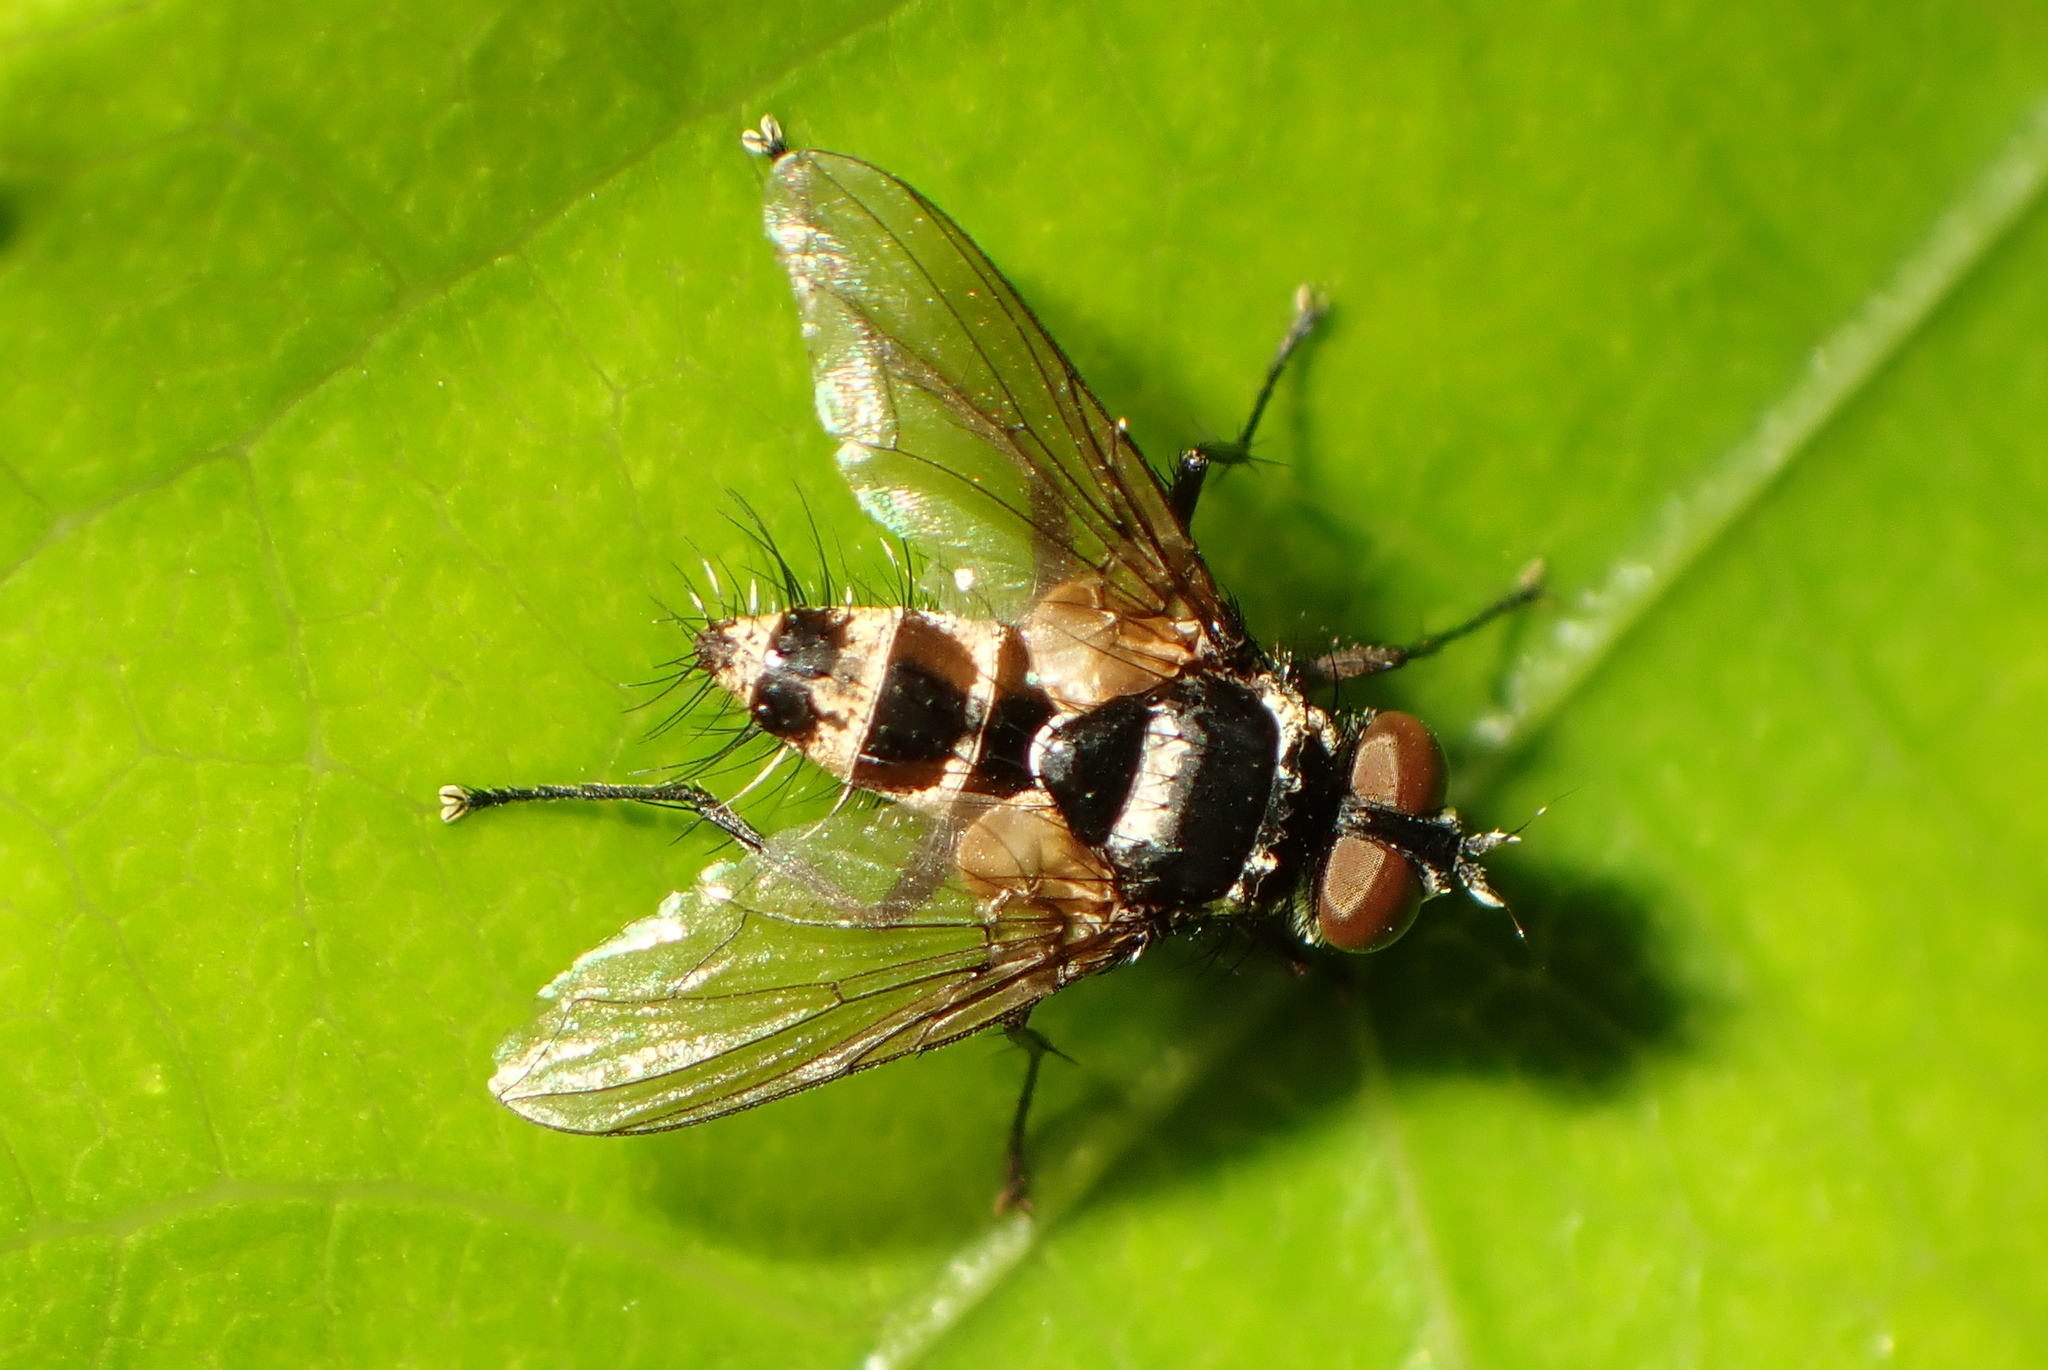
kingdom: Animalia
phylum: Arthropoda
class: Insecta
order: Diptera
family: Tachinidae
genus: Trigonospila
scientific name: Trigonospila brevifacies
